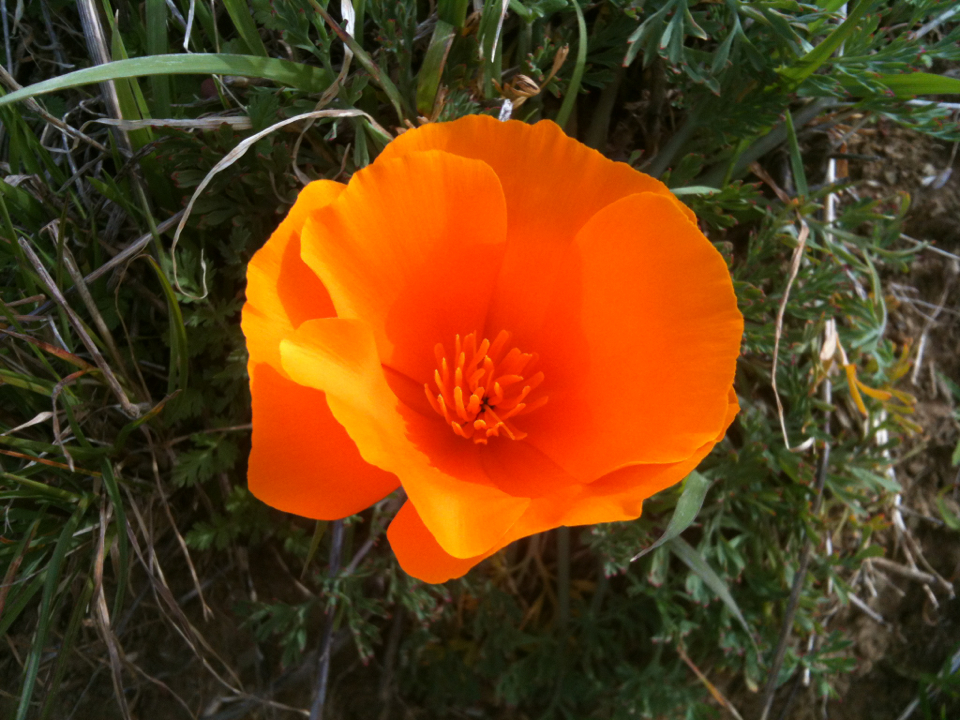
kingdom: Plantae
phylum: Tracheophyta
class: Magnoliopsida
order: Ranunculales
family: Papaveraceae
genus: Eschscholzia
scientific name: Eschscholzia californica
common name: California poppy
